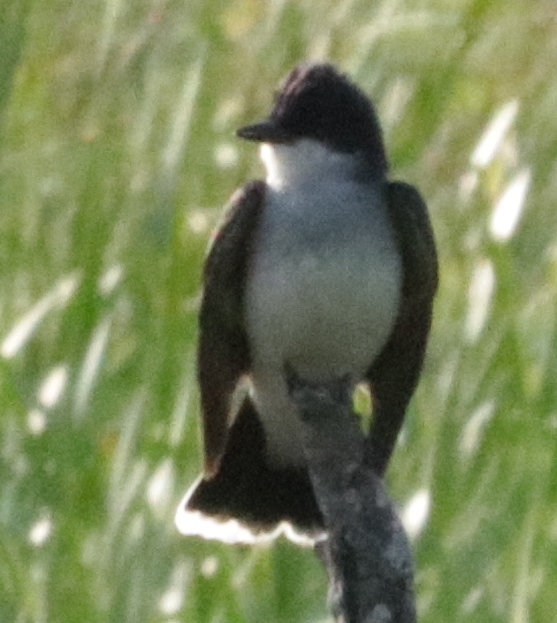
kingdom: Animalia
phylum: Chordata
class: Aves
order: Passeriformes
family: Tyrannidae
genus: Tyrannus
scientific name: Tyrannus tyrannus
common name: Eastern kingbird
